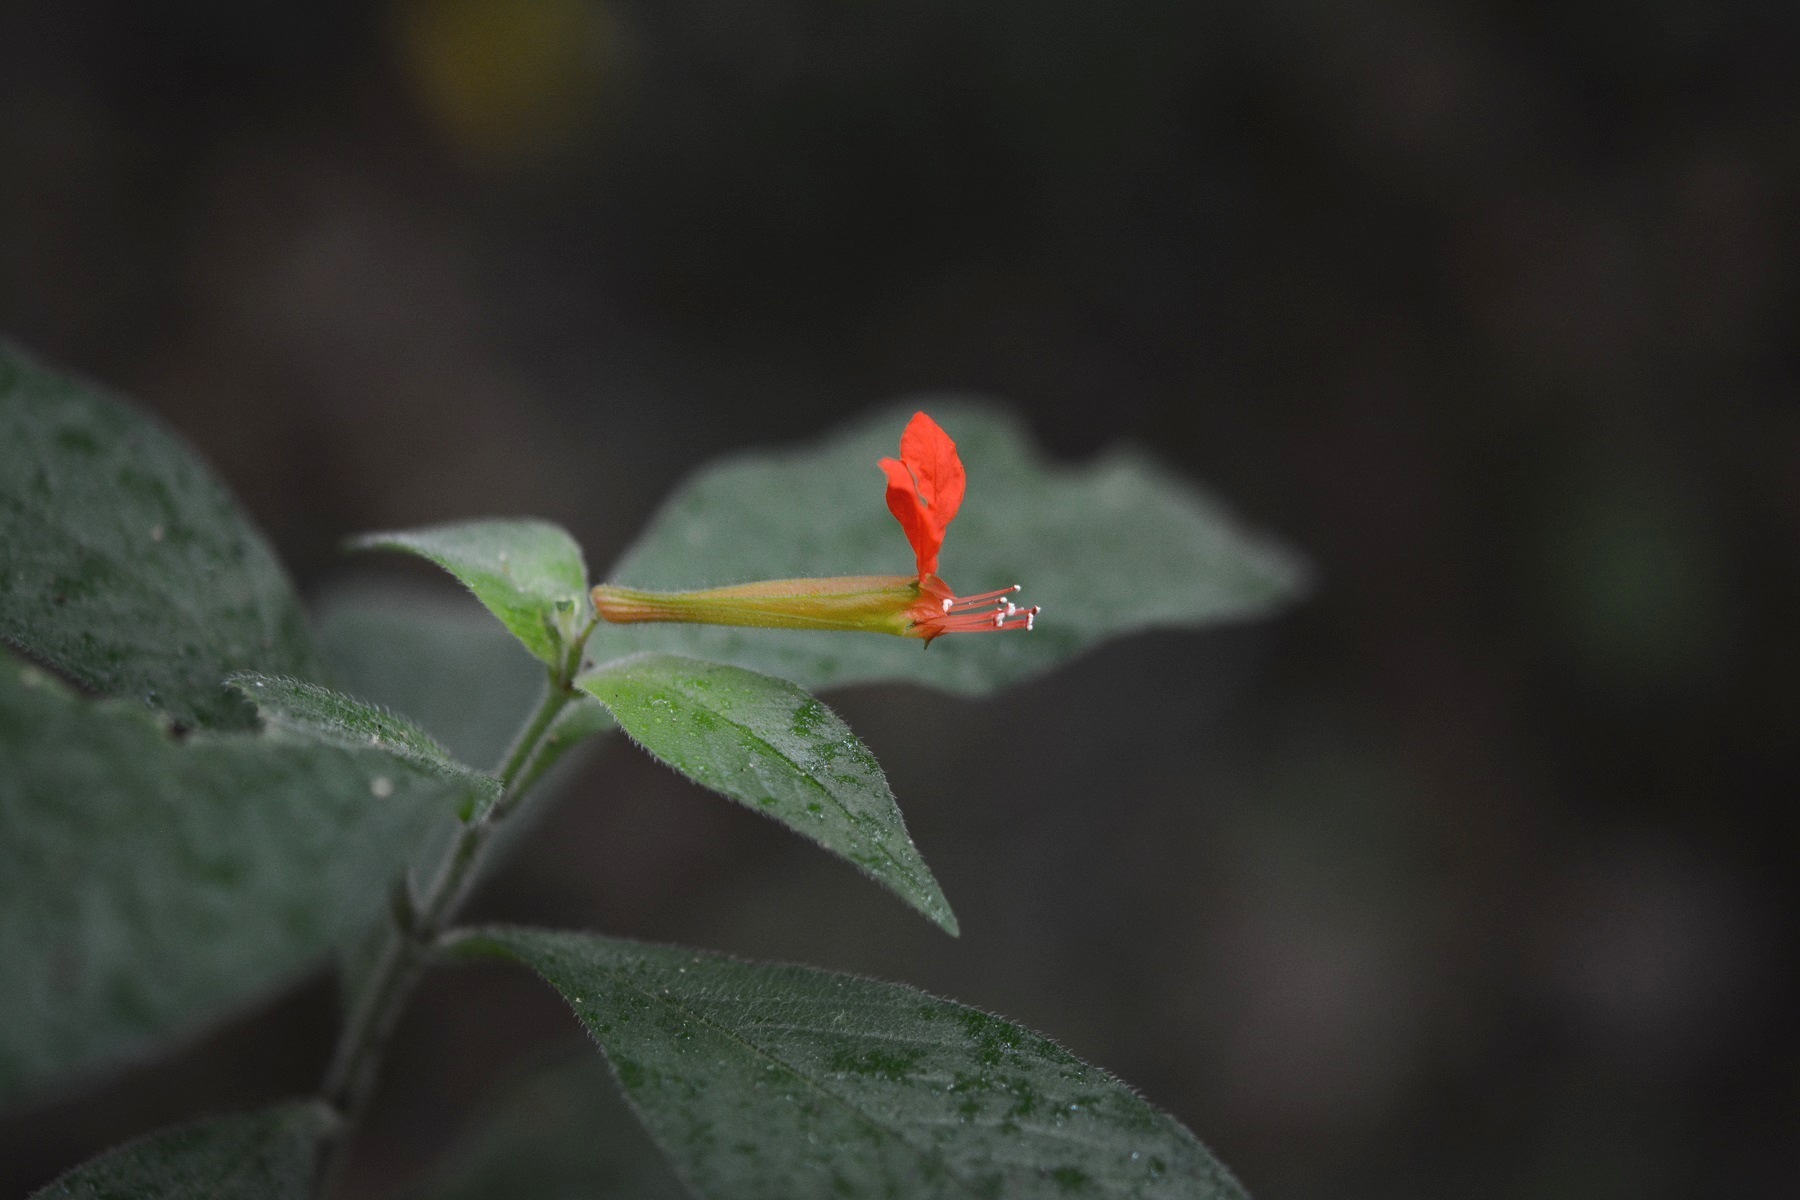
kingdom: Plantae
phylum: Tracheophyta
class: Magnoliopsida
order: Myrtales
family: Lythraceae
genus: Cuphea
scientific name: Cuphea appendiculata
